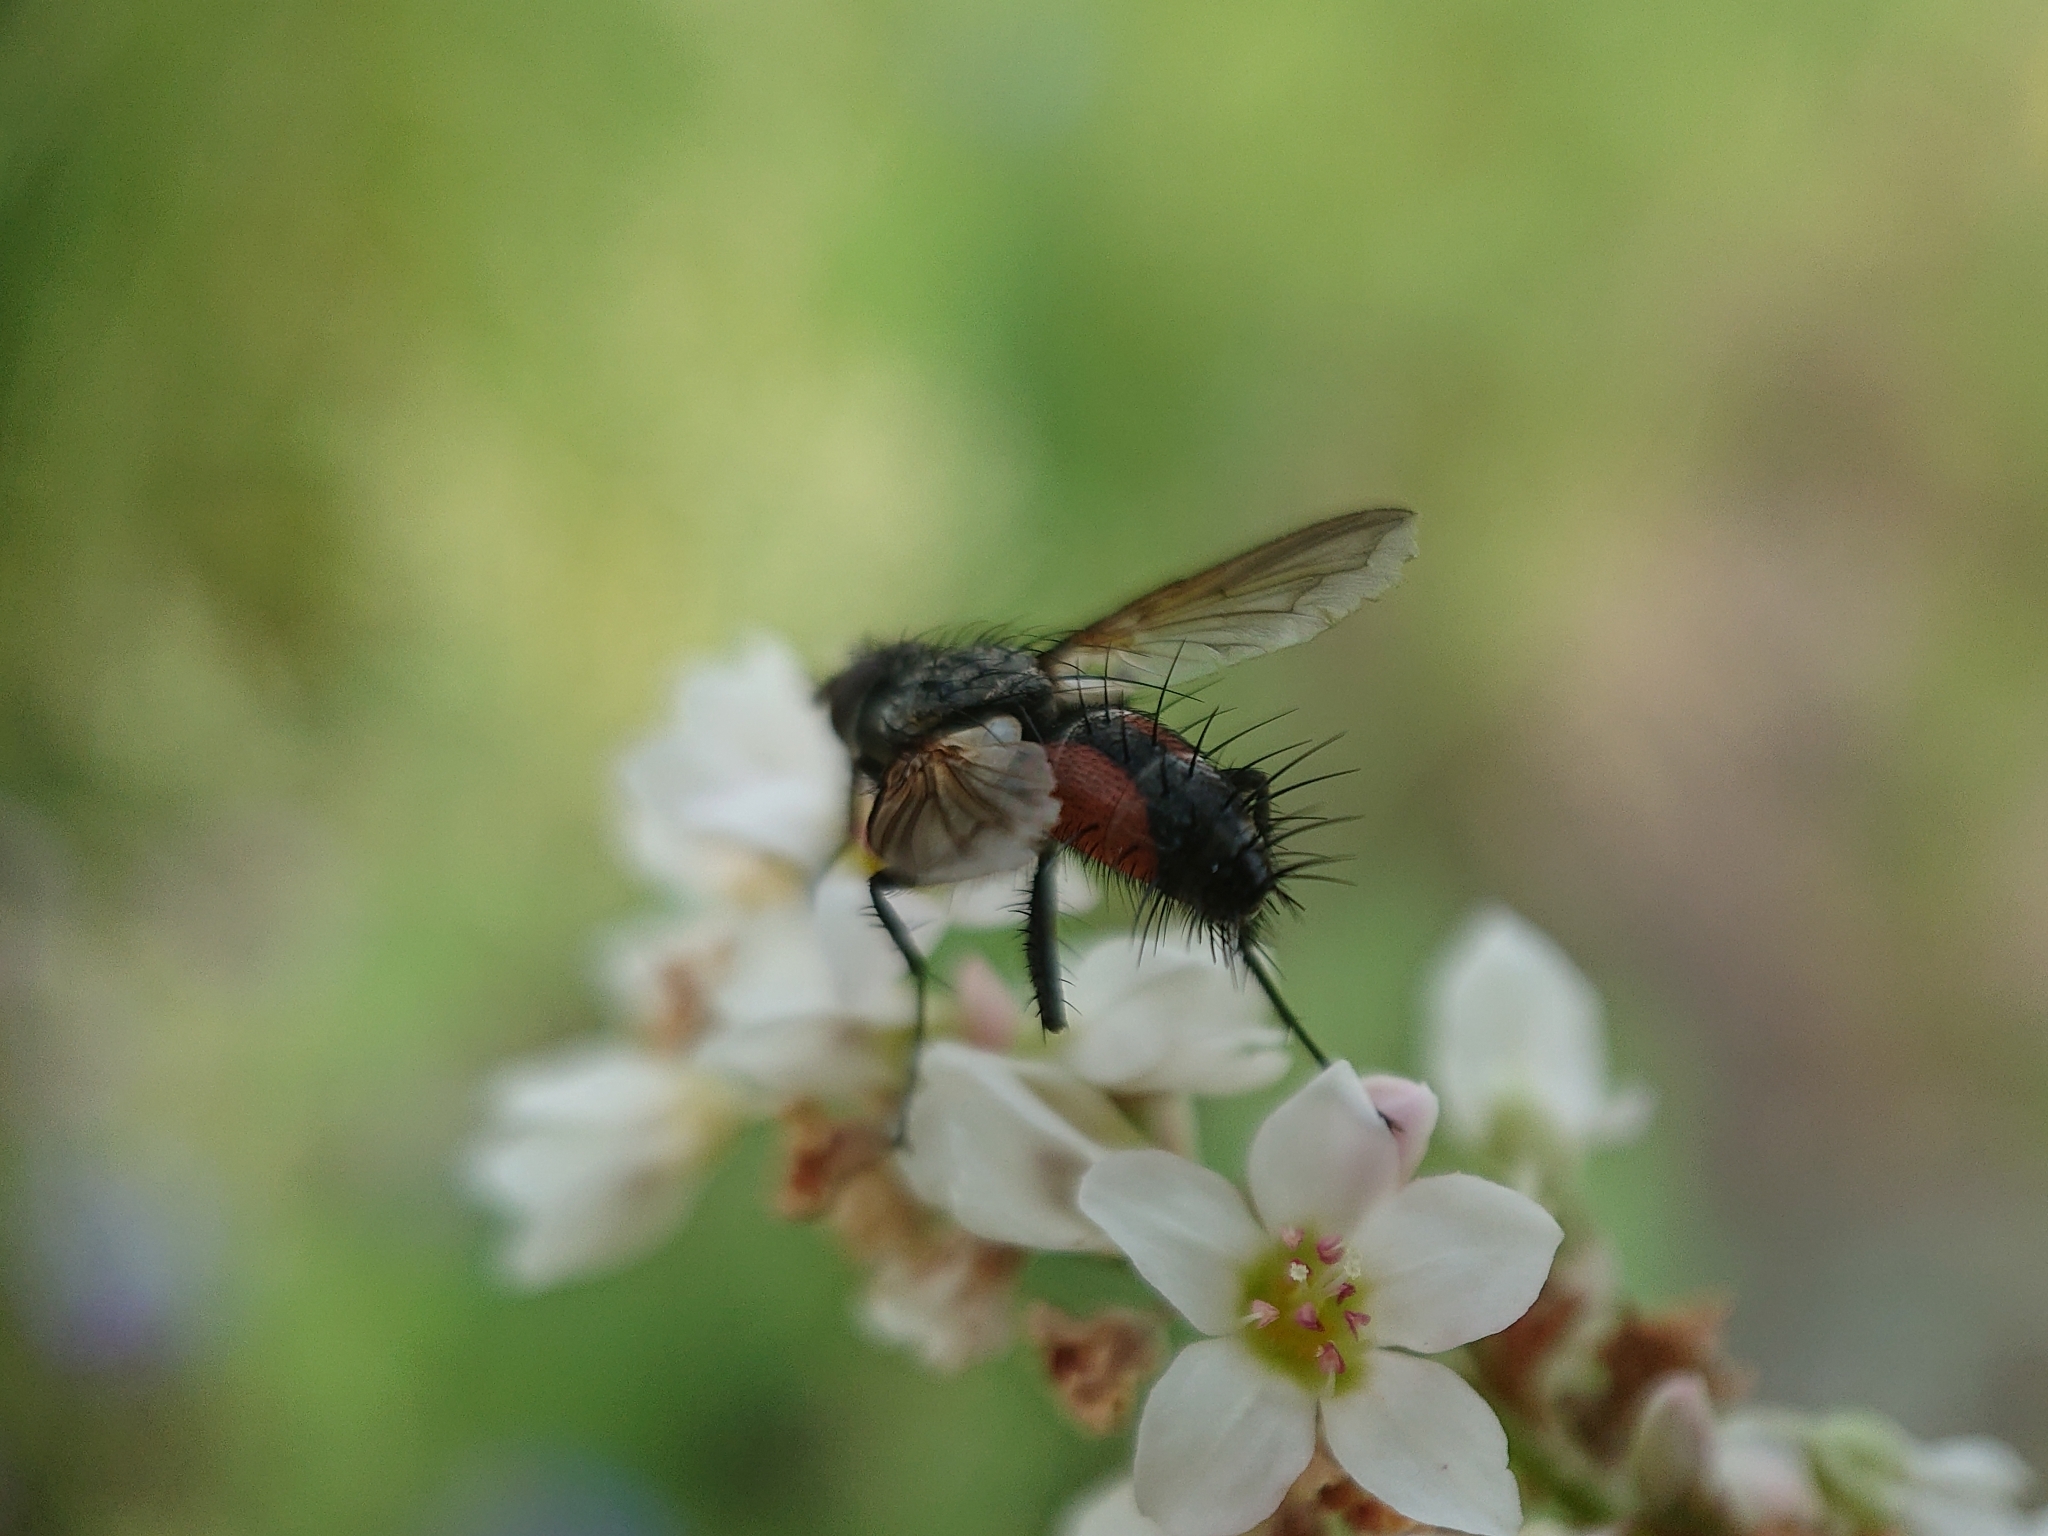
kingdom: Animalia
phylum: Arthropoda
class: Insecta
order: Diptera
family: Tachinidae
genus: Eriothrix
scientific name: Eriothrix rufomaculatus
